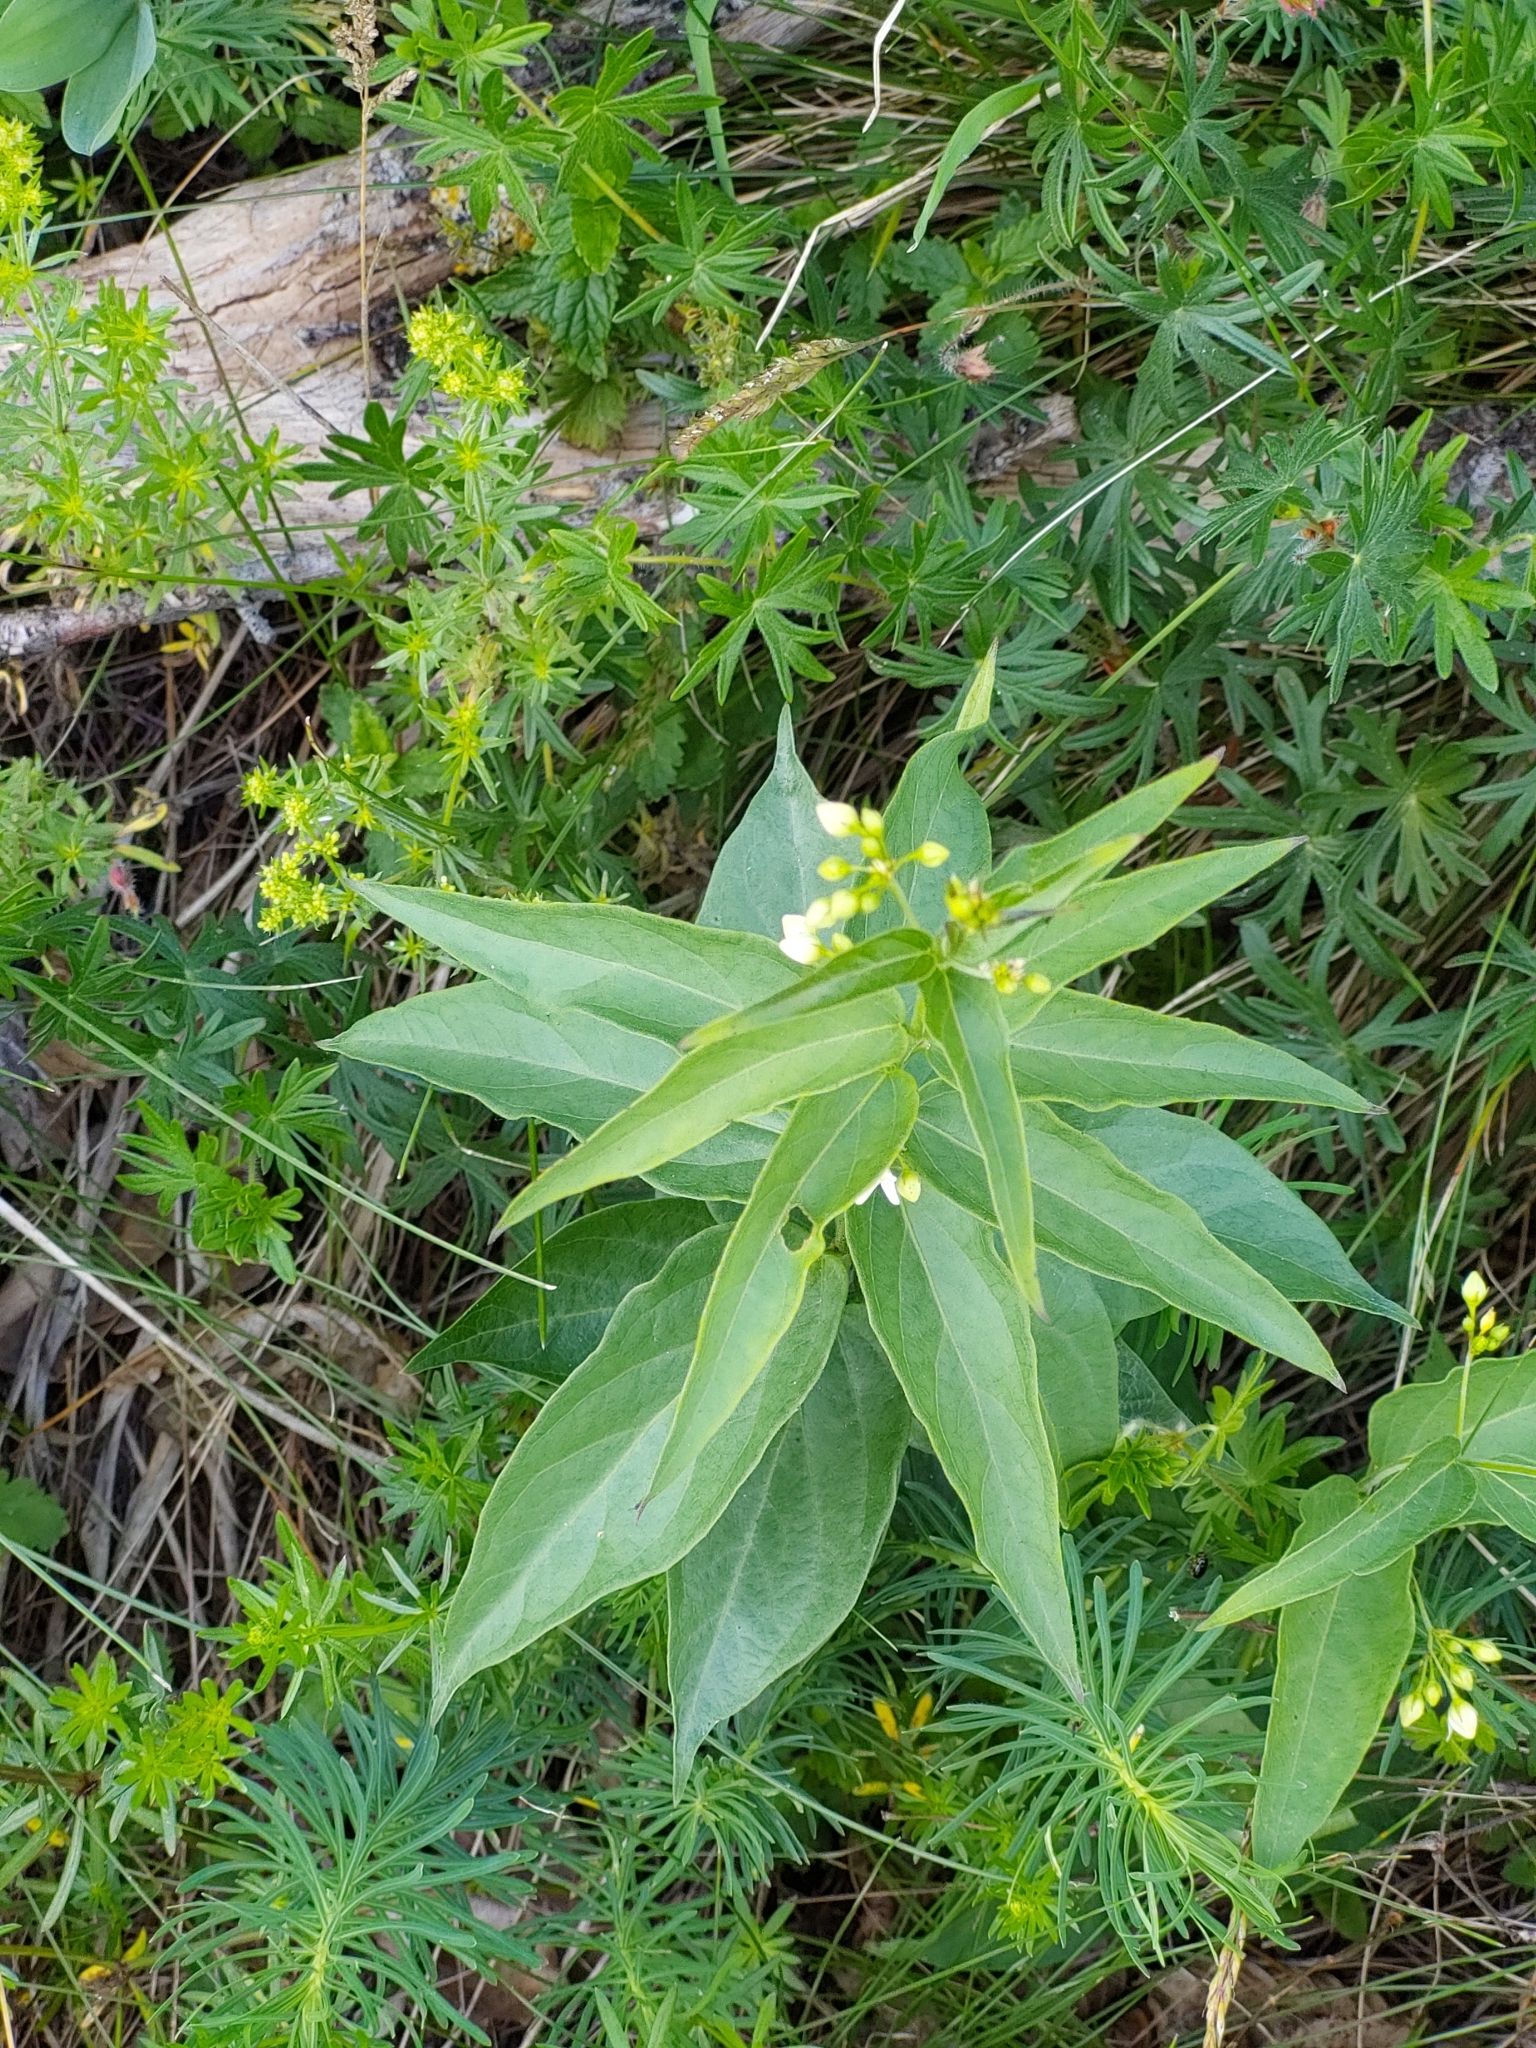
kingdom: Plantae
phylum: Tracheophyta
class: Magnoliopsida
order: Gentianales
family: Apocynaceae
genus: Vincetoxicum
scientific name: Vincetoxicum hirundinaria
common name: White swallowwort
